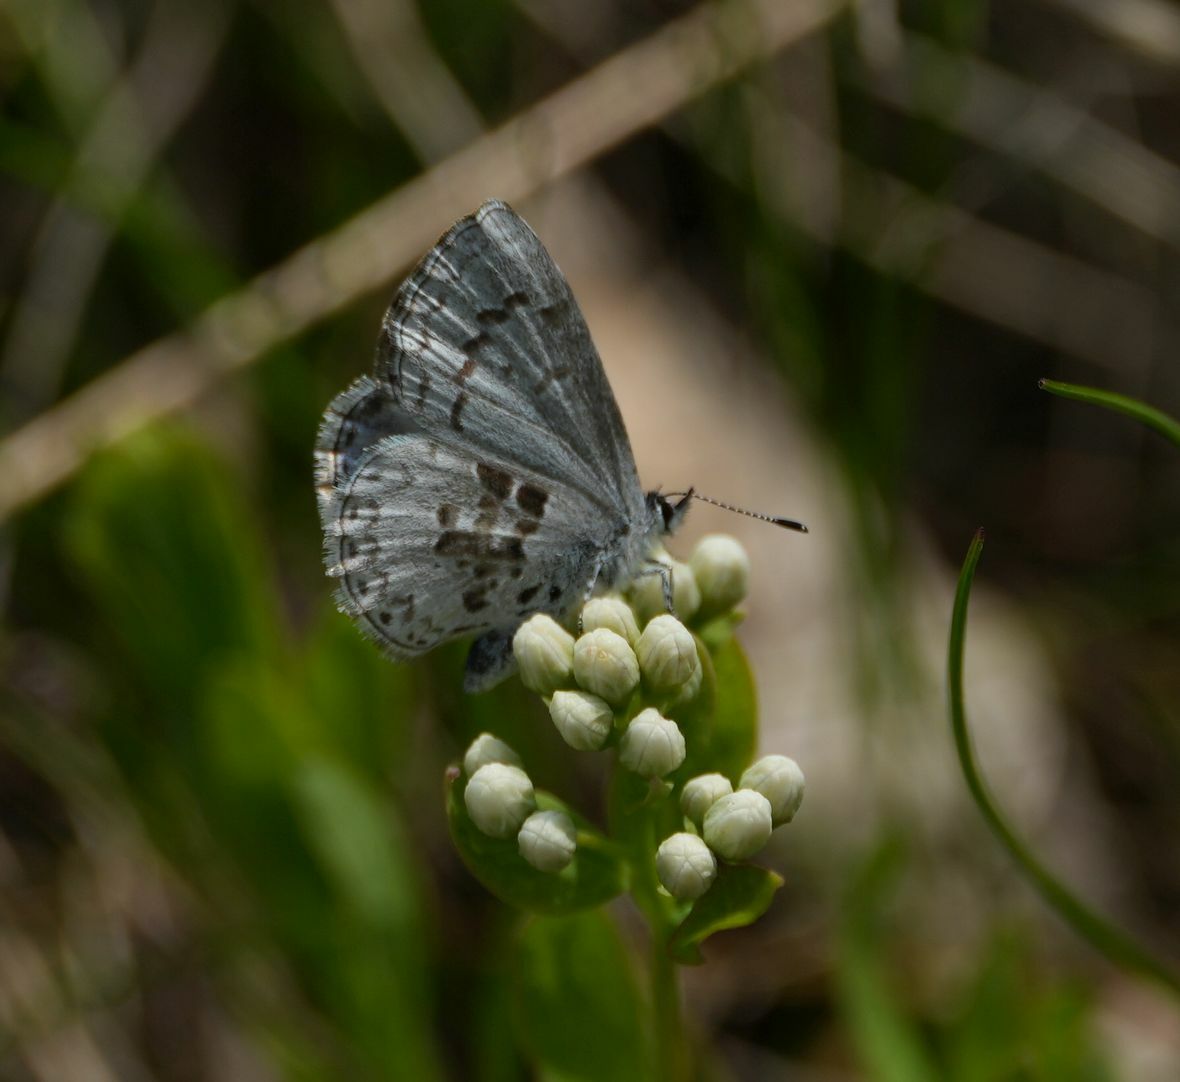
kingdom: Animalia
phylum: Arthropoda
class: Insecta
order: Lepidoptera
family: Lycaenidae
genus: Celastrina
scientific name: Celastrina lucia
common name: Lucia azure
